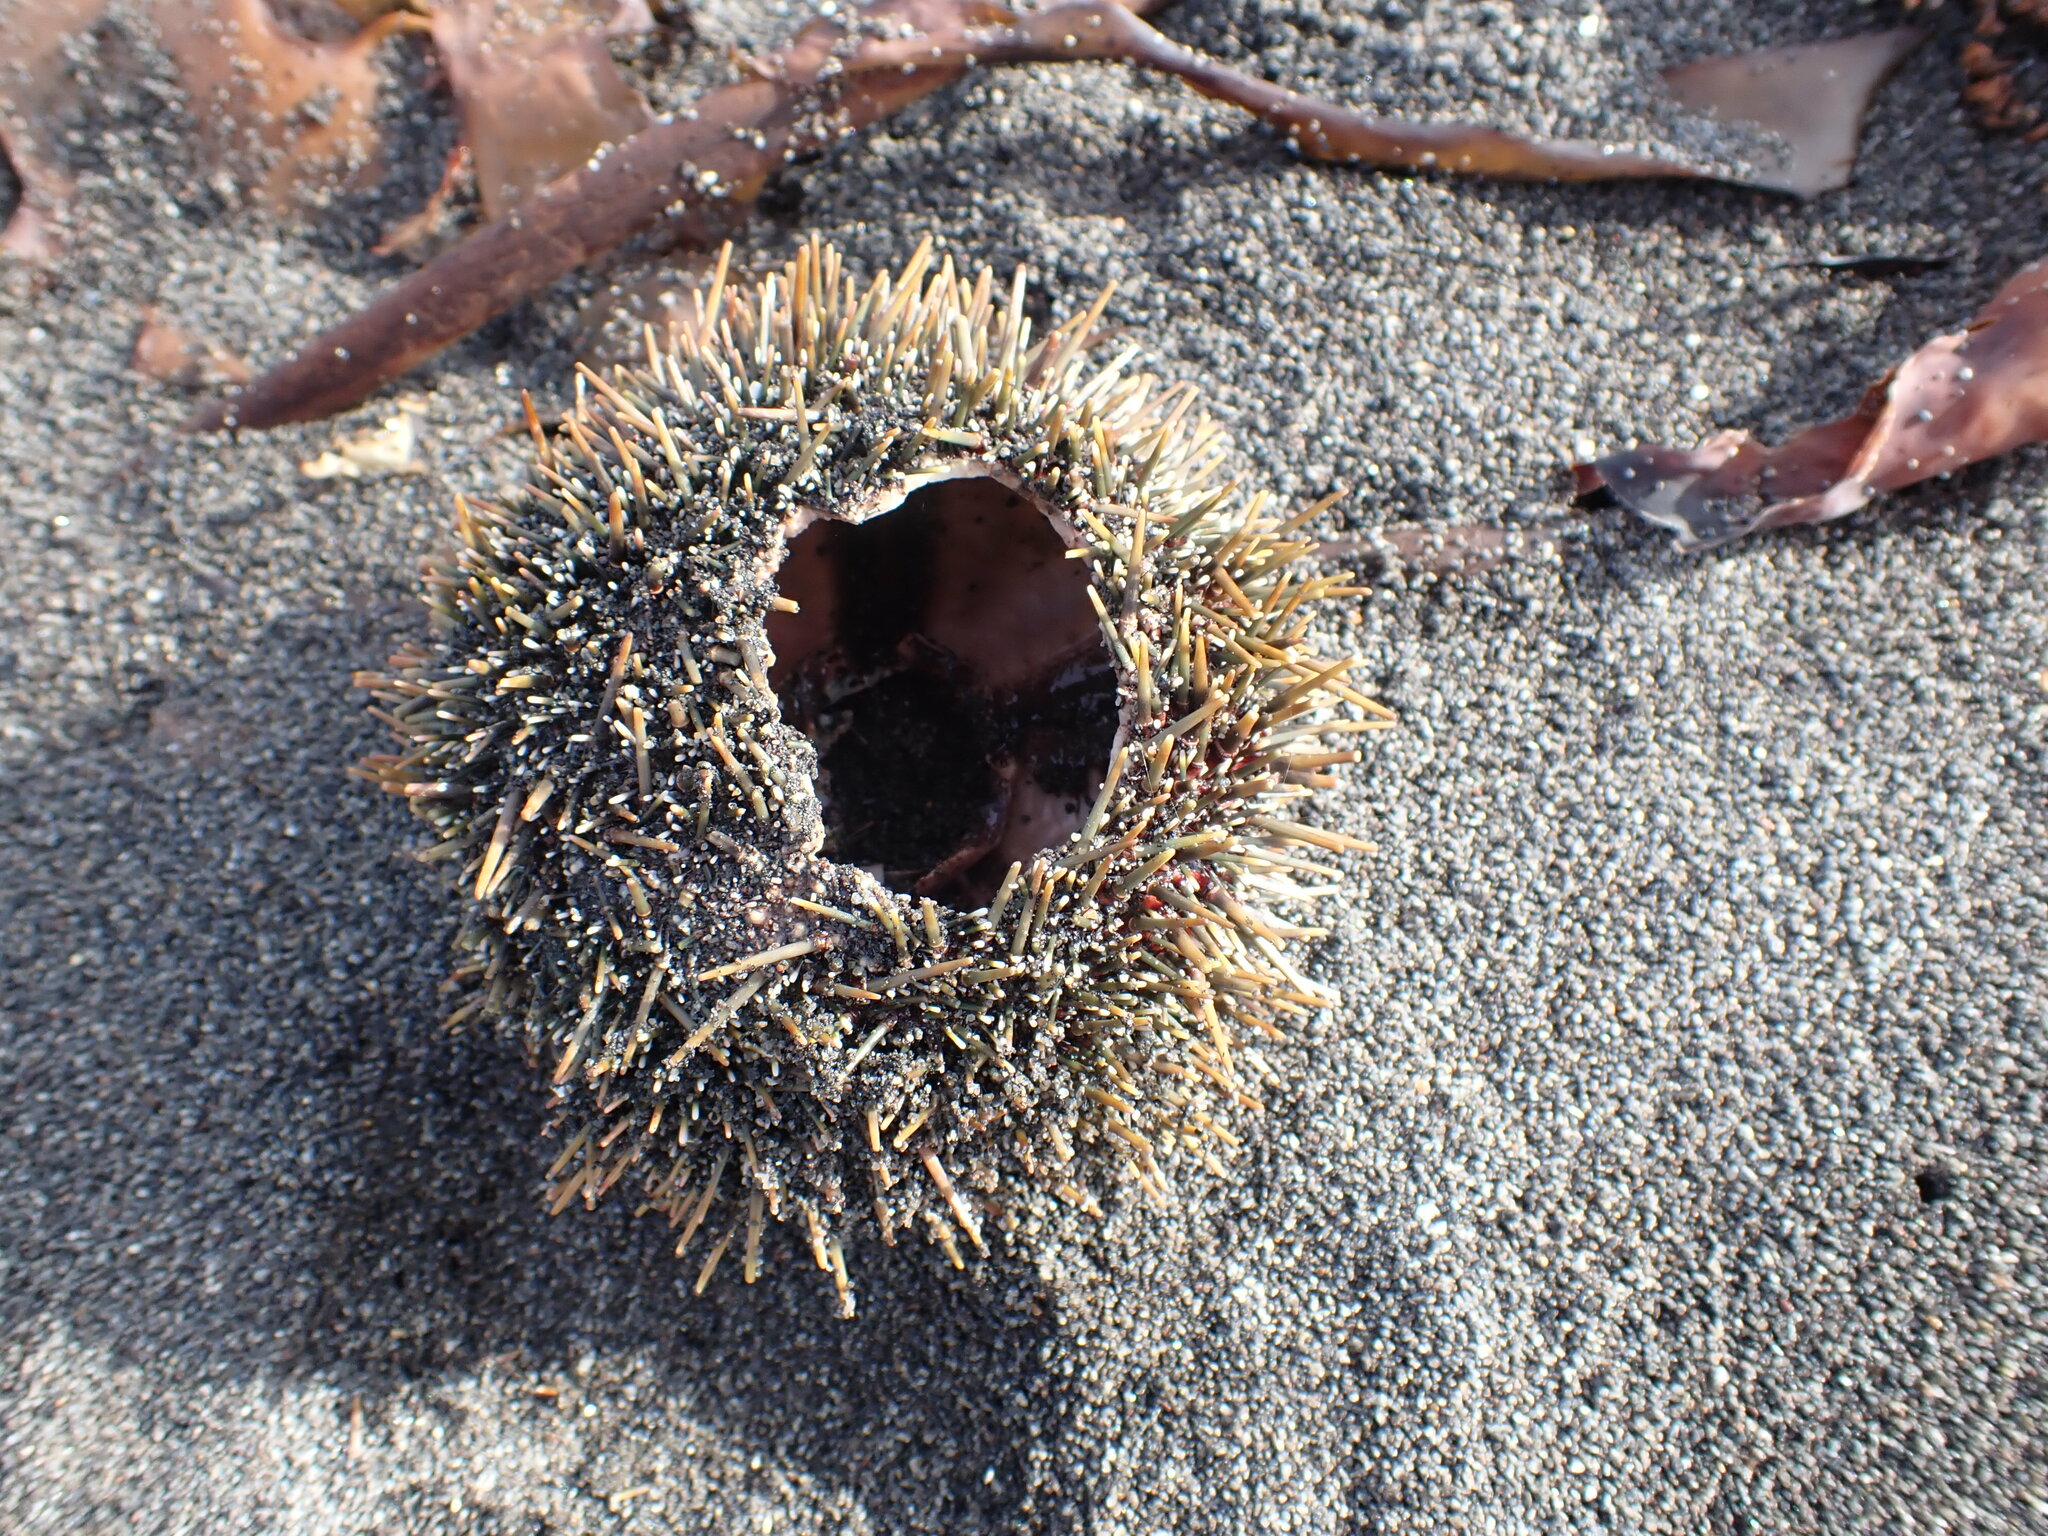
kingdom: Animalia
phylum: Echinodermata
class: Echinoidea
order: Camarodonta
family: Echinometridae
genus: Evechinus
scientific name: Evechinus chloroticus
